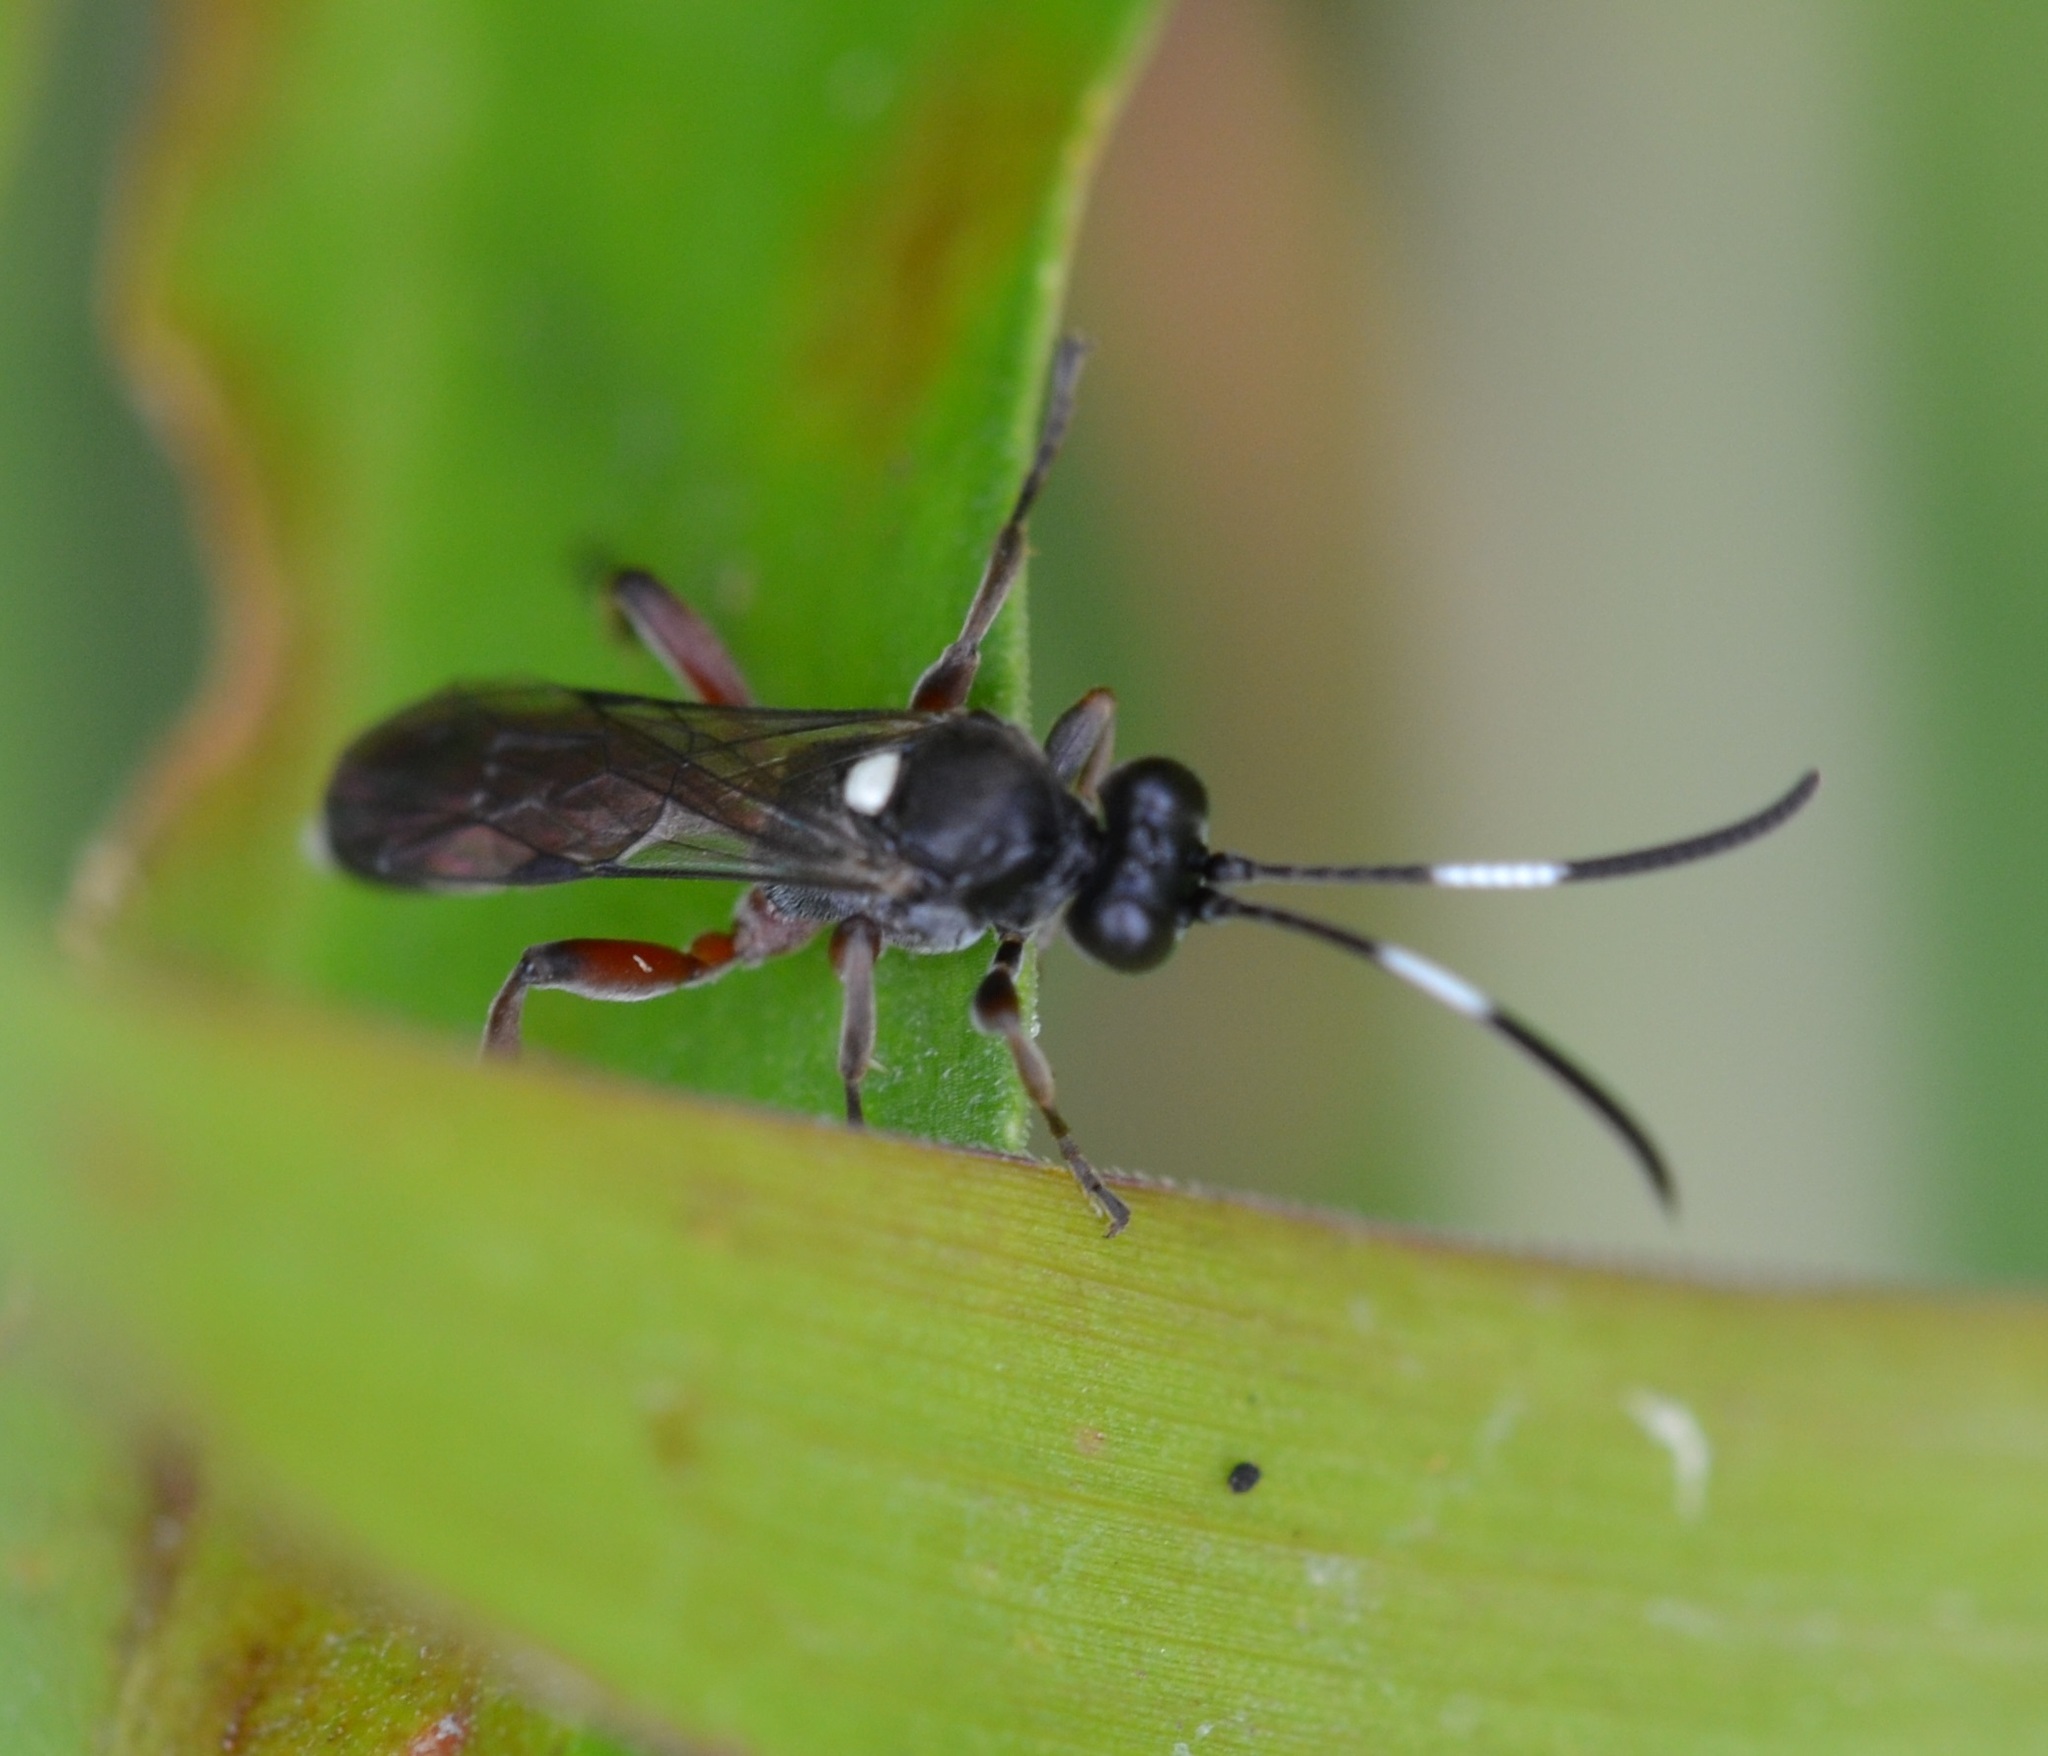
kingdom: Animalia
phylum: Arthropoda
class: Insecta
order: Hymenoptera
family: Ichneumonidae
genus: Vulgichneumon
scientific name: Vulgichneumon diminutus
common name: Parasitoid wasp
